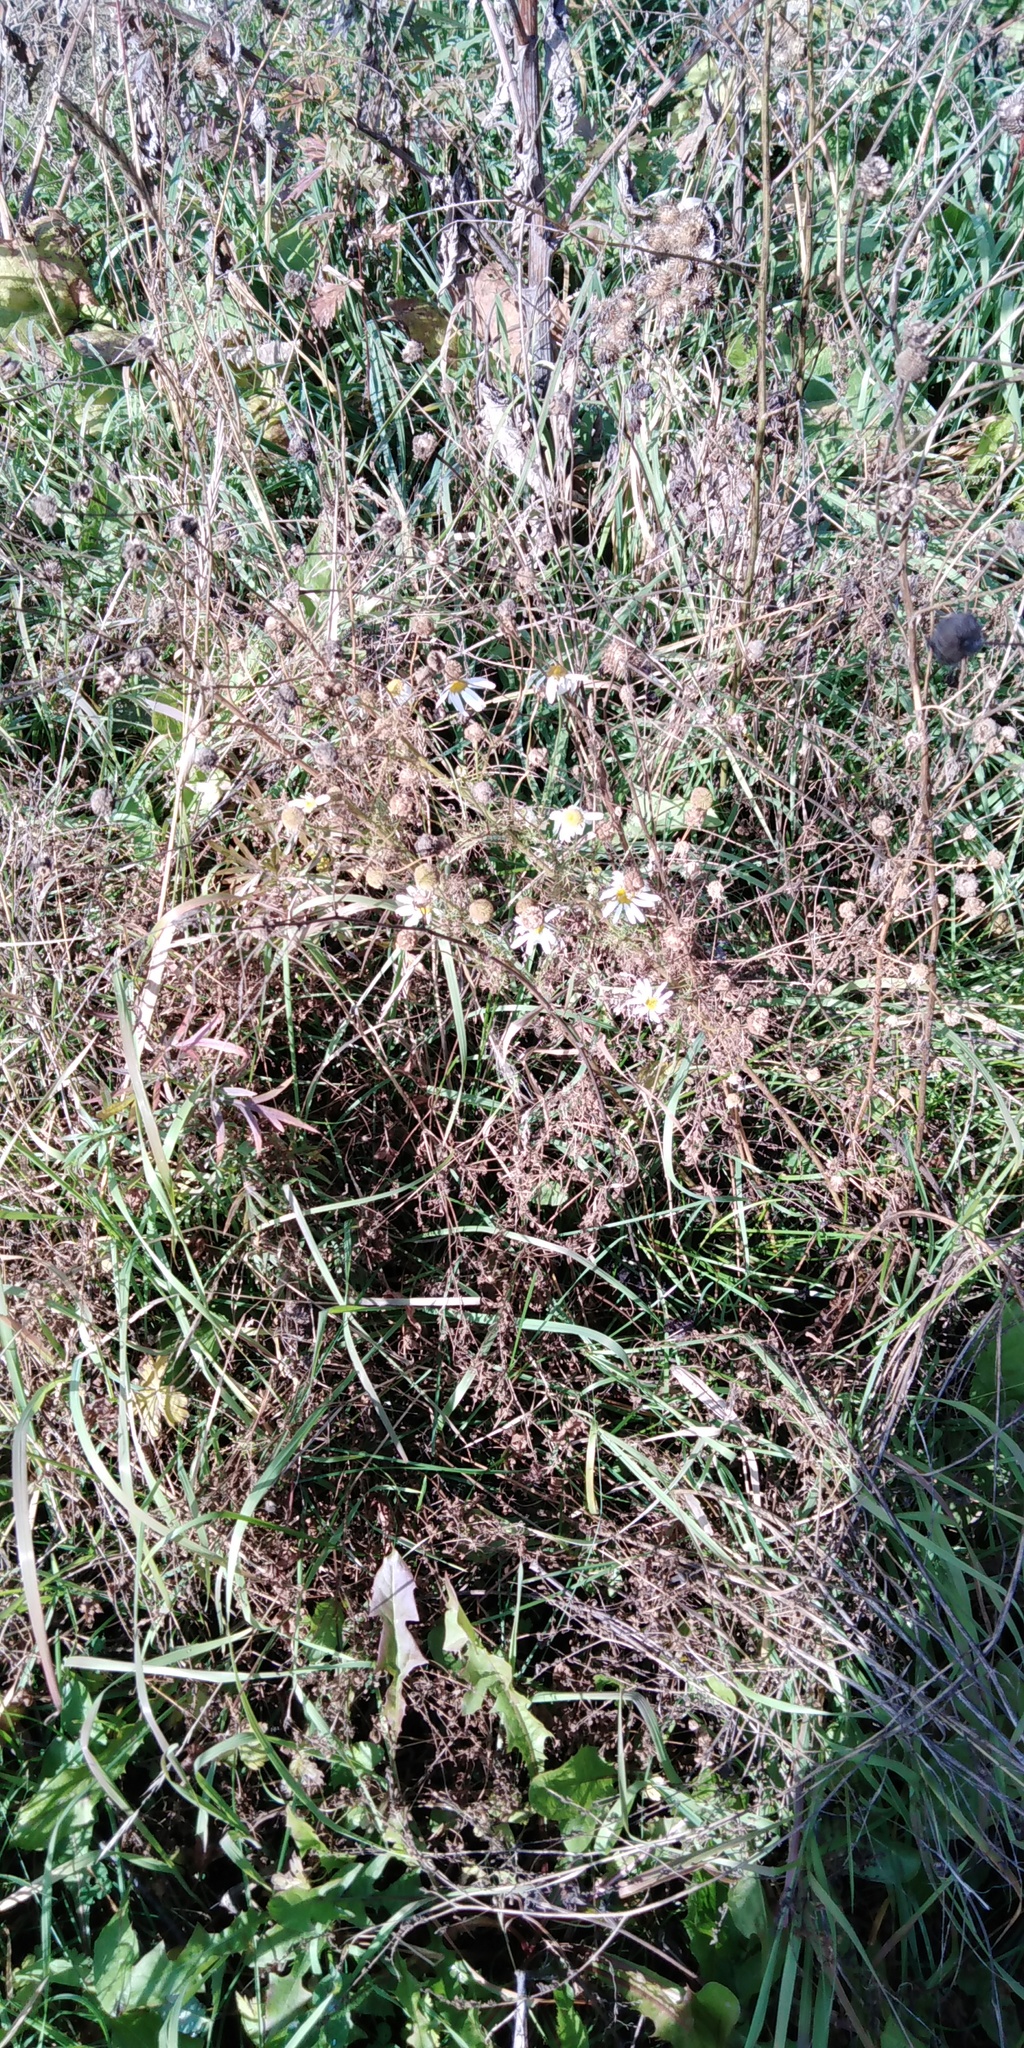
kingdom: Plantae
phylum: Tracheophyta
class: Magnoliopsida
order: Asterales
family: Asteraceae
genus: Tripleurospermum
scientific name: Tripleurospermum inodorum
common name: Scentless mayweed
